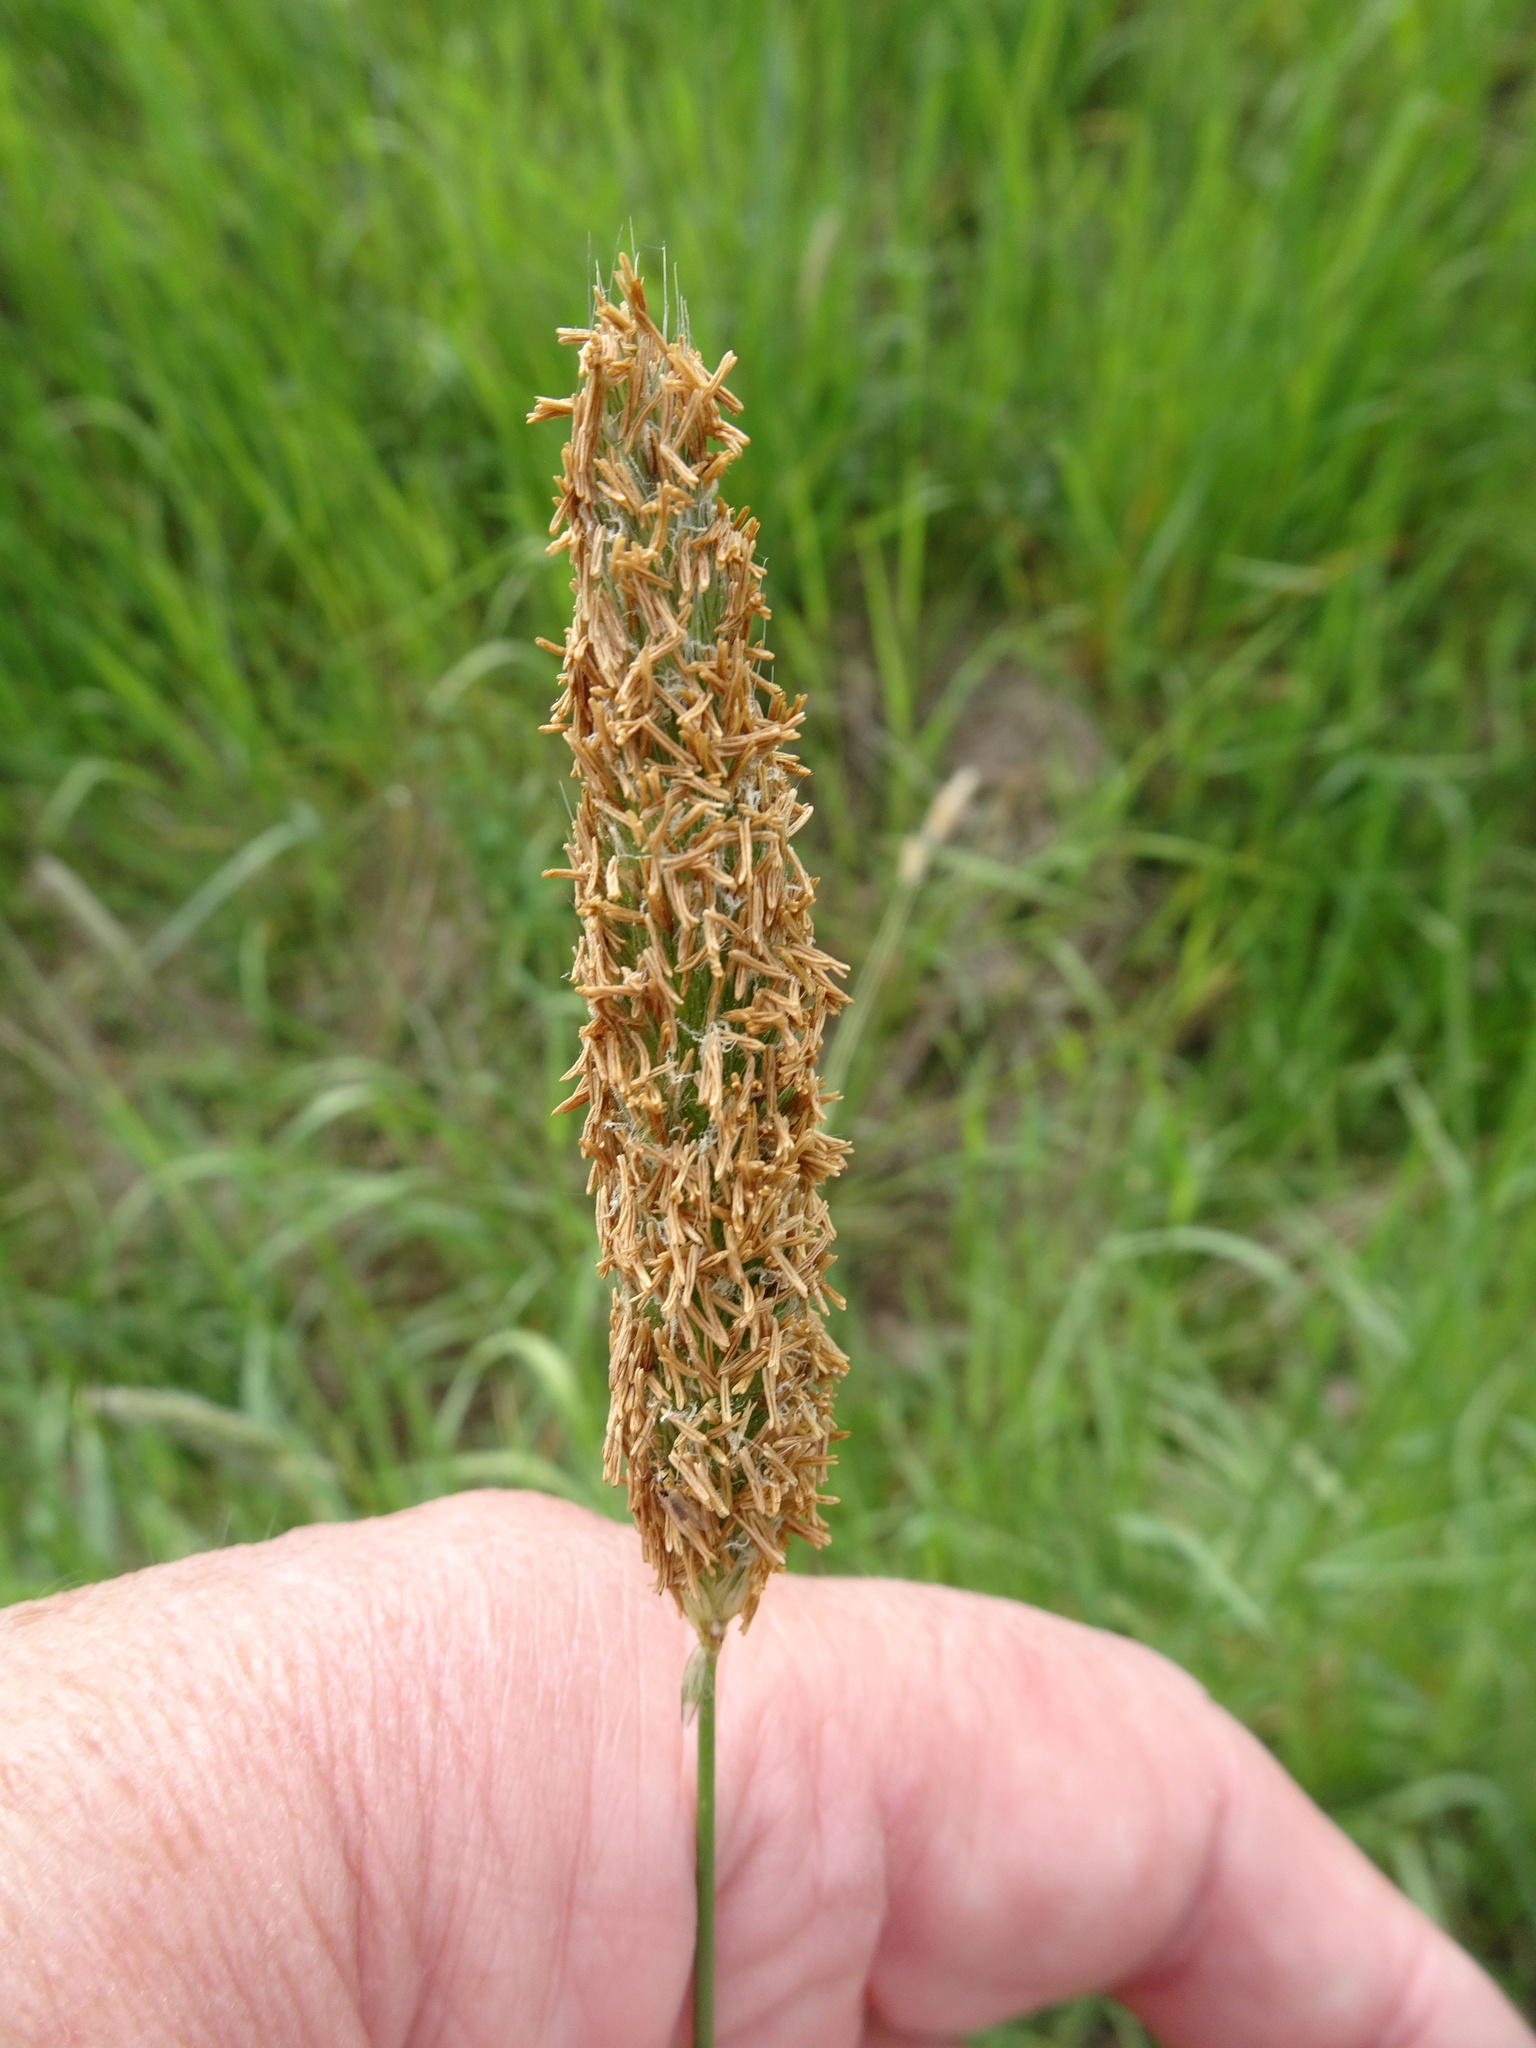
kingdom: Plantae
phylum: Tracheophyta
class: Liliopsida
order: Poales
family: Poaceae
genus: Alopecurus
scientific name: Alopecurus pratensis
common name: Meadow foxtail
